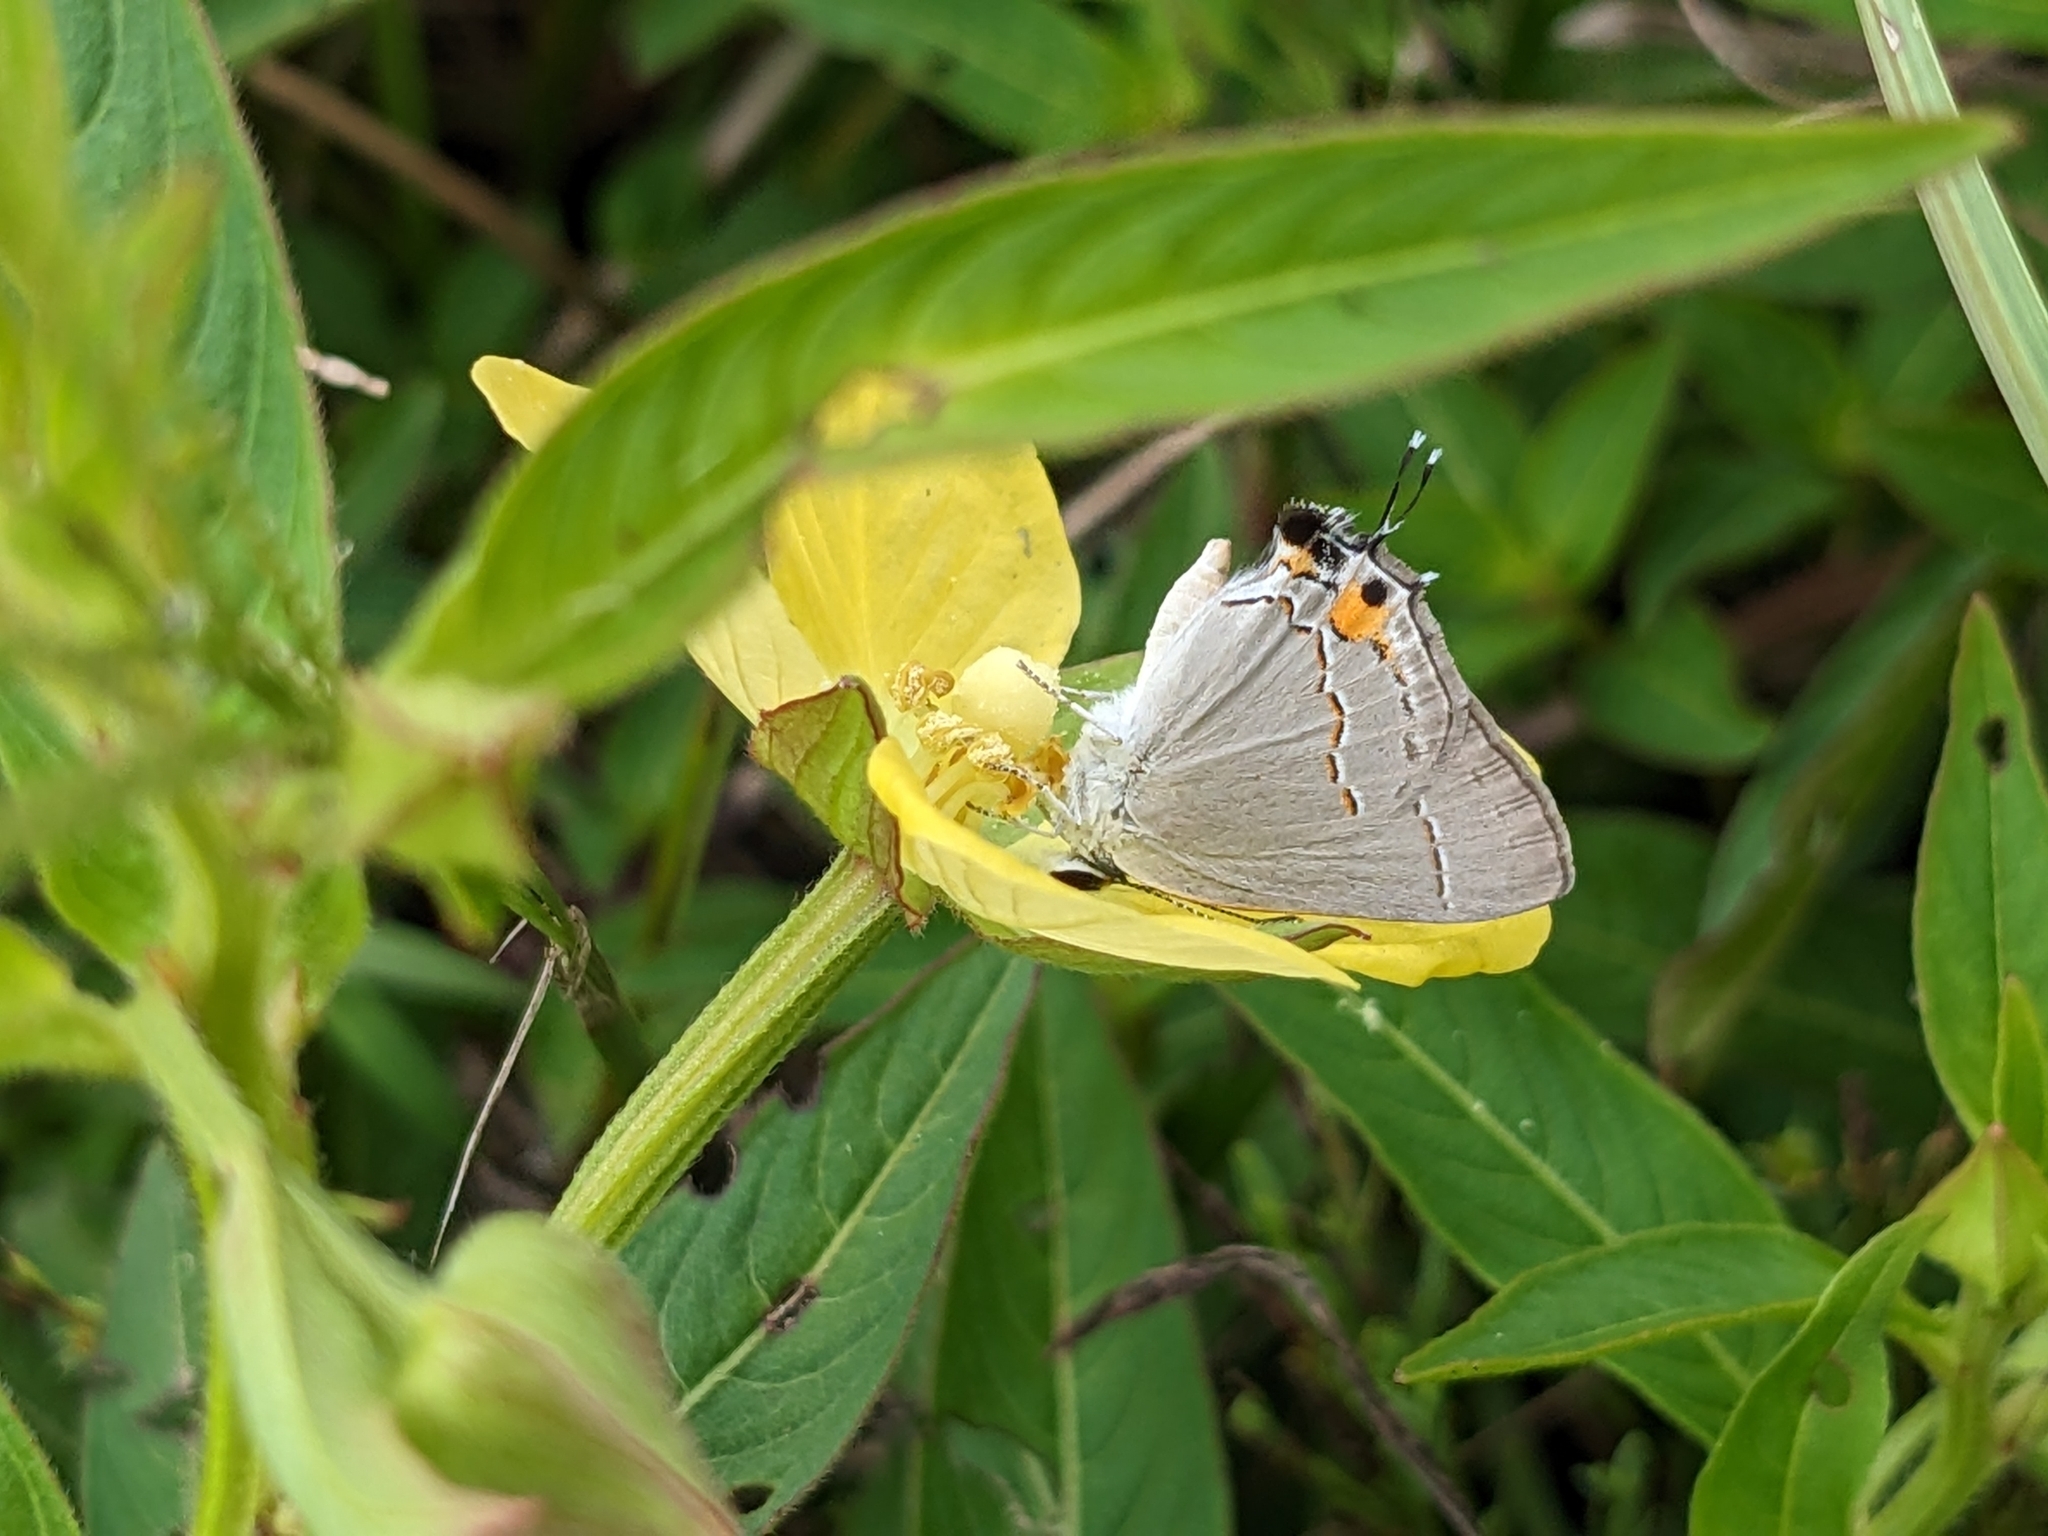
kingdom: Animalia
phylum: Arthropoda
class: Insecta
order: Lepidoptera
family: Lycaenidae
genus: Strymon
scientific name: Strymon melinus
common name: Gray hairstreak
